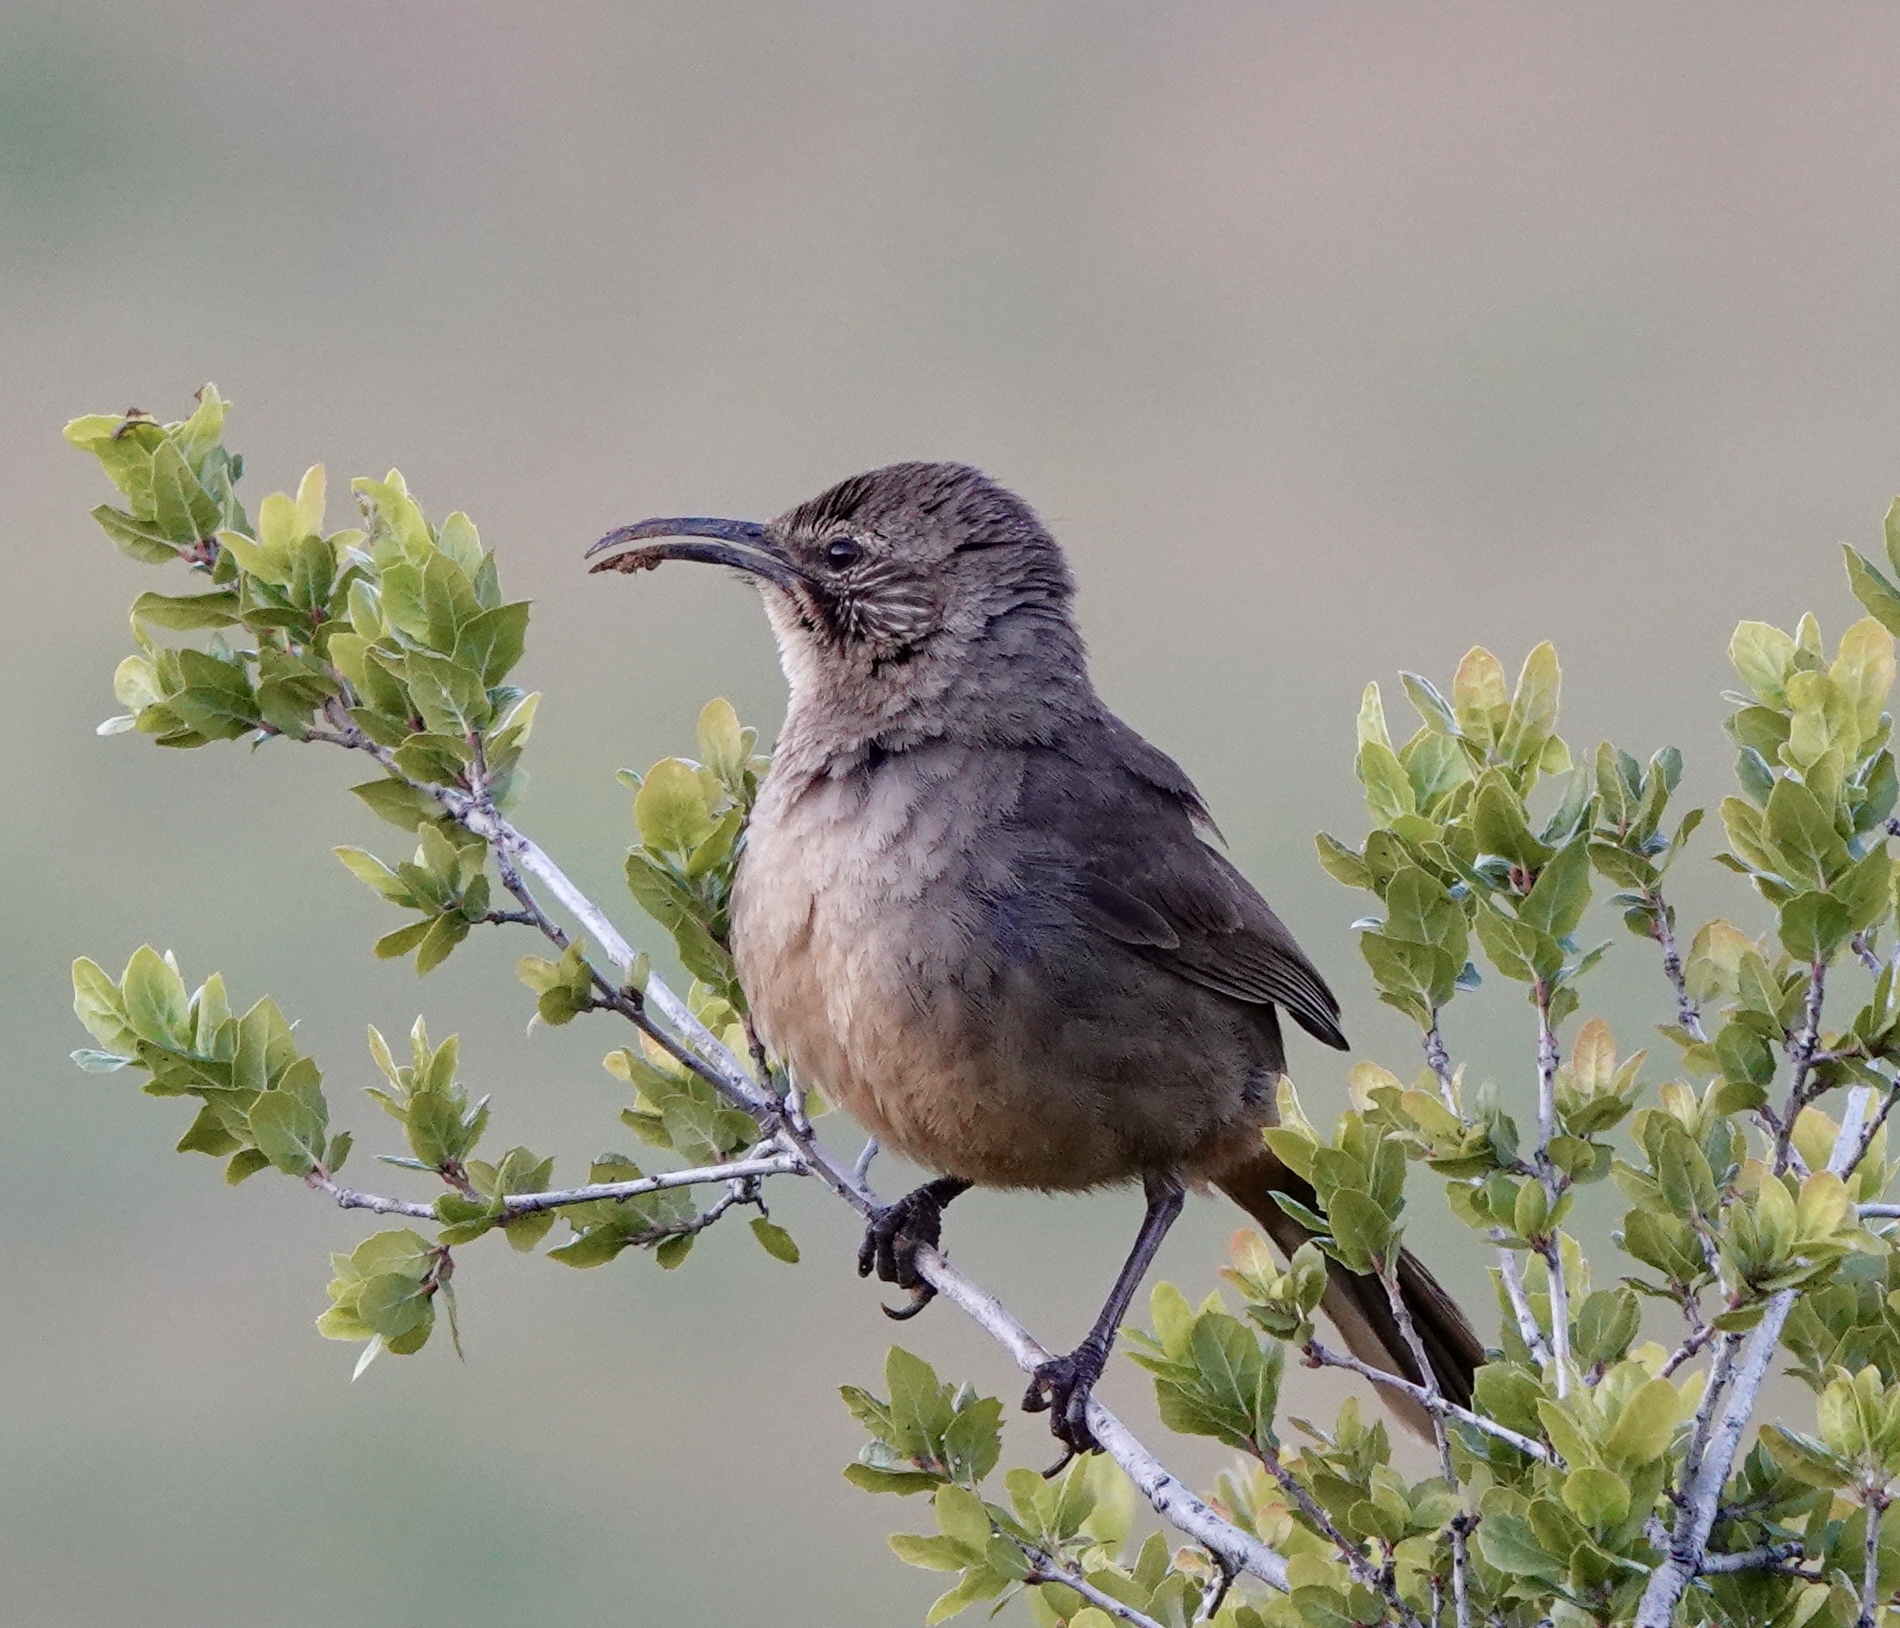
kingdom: Animalia
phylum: Chordata
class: Aves
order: Passeriformes
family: Mimidae
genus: Toxostoma
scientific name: Toxostoma redivivum
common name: California thrasher
